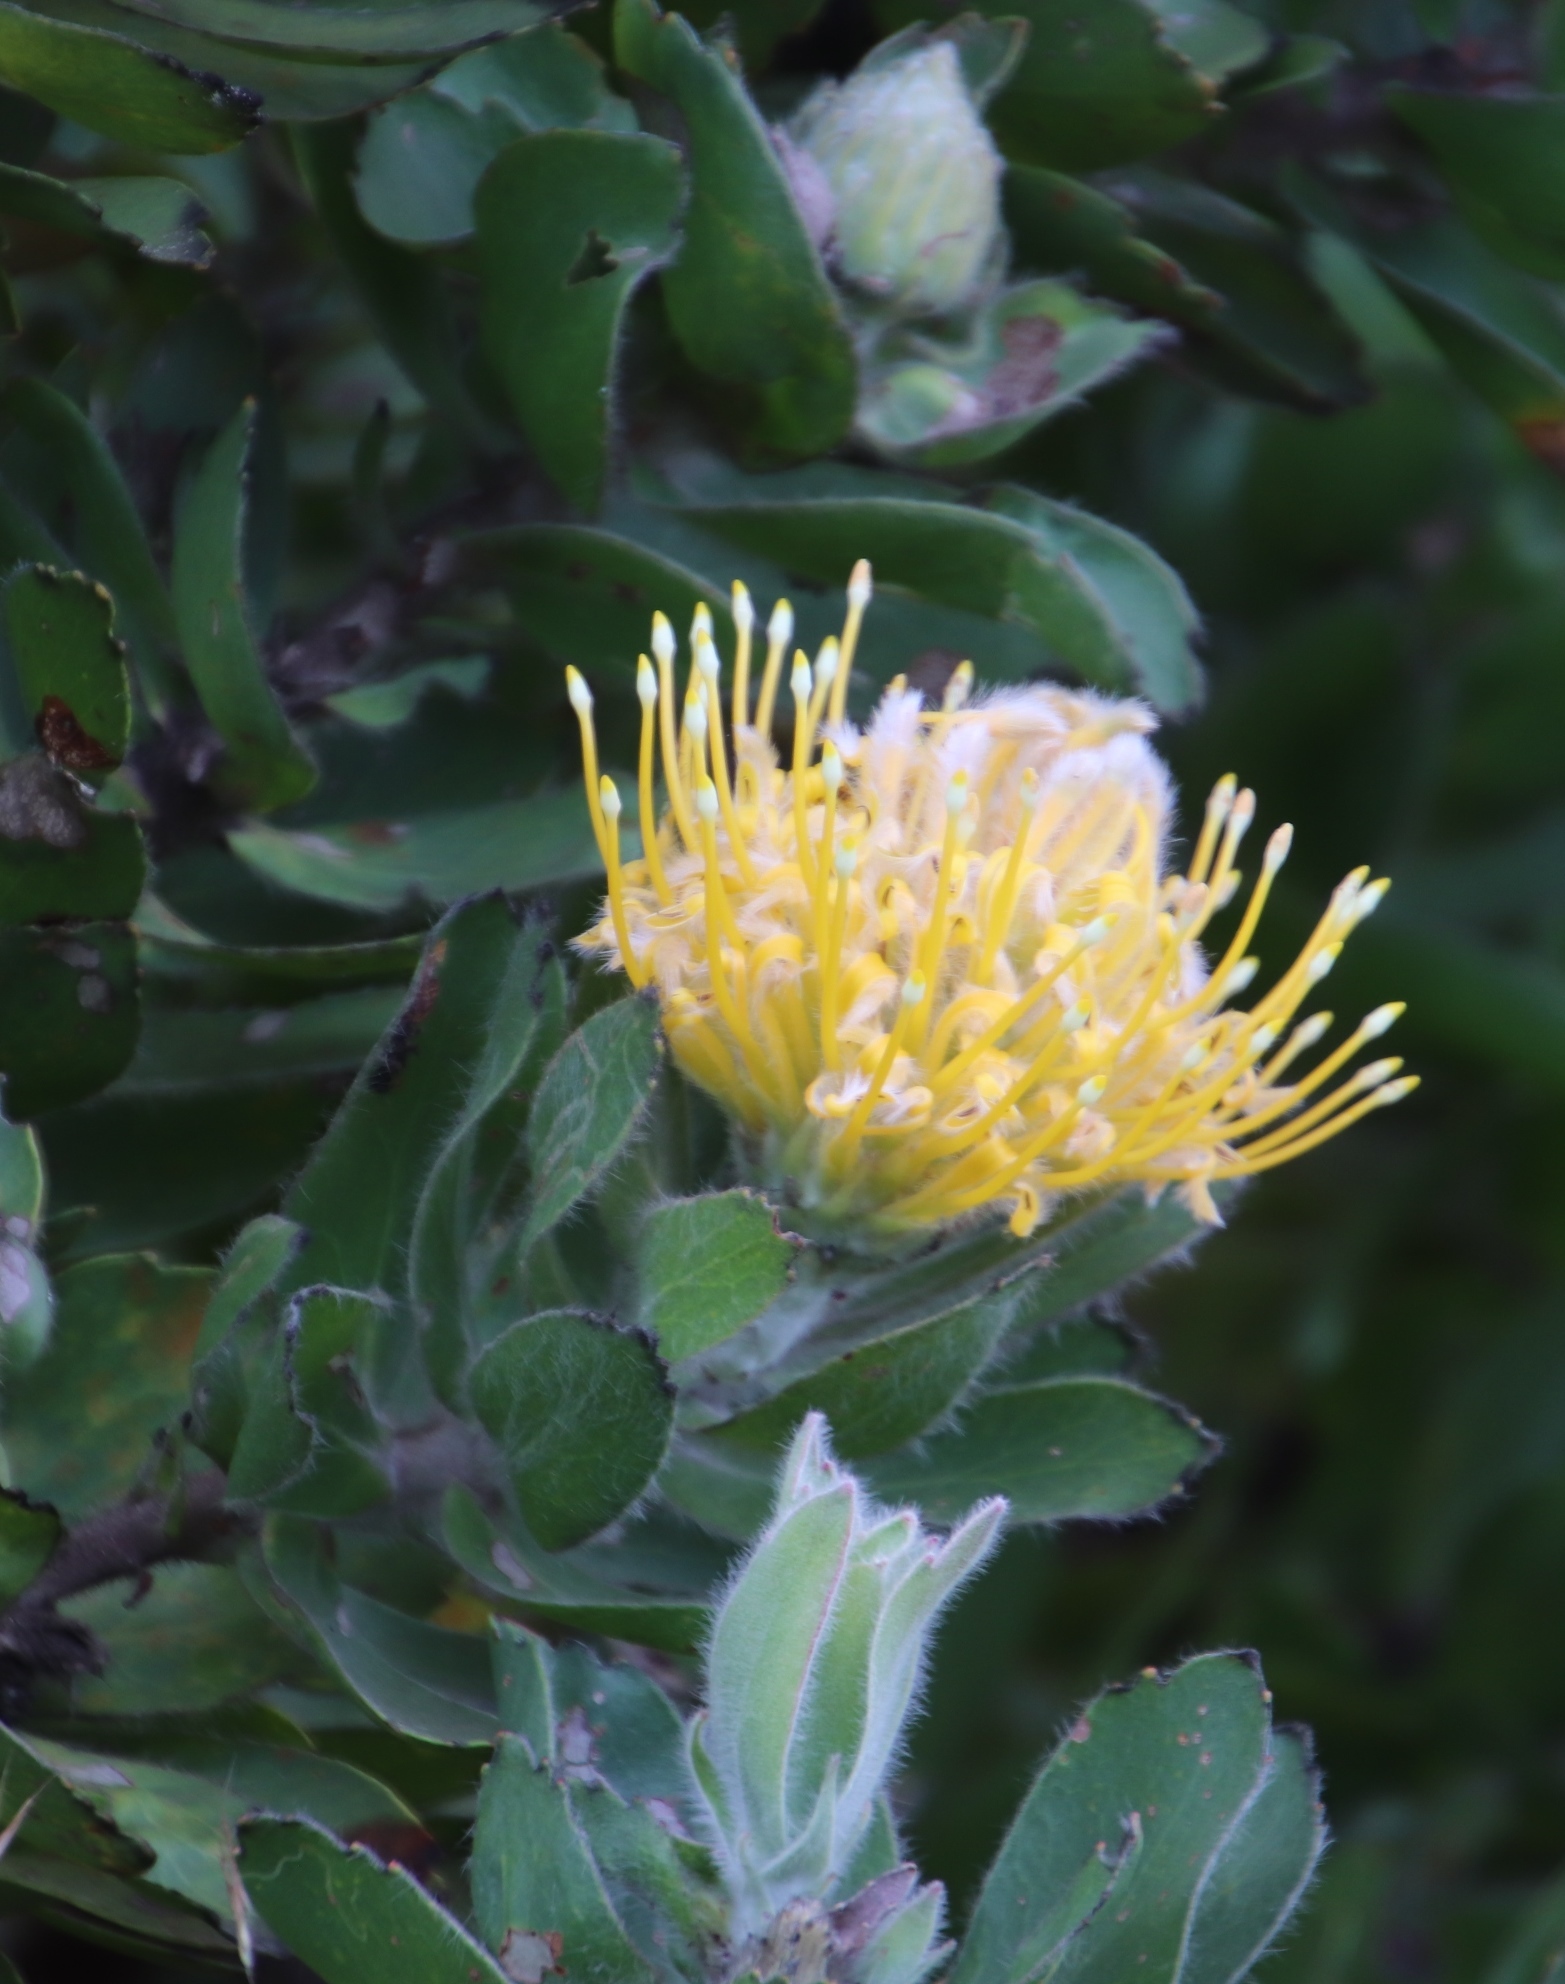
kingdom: Plantae
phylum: Tracheophyta
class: Magnoliopsida
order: Proteales
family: Proteaceae
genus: Leucospermum
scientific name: Leucospermum conocarpodendron
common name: Tree pincushion
